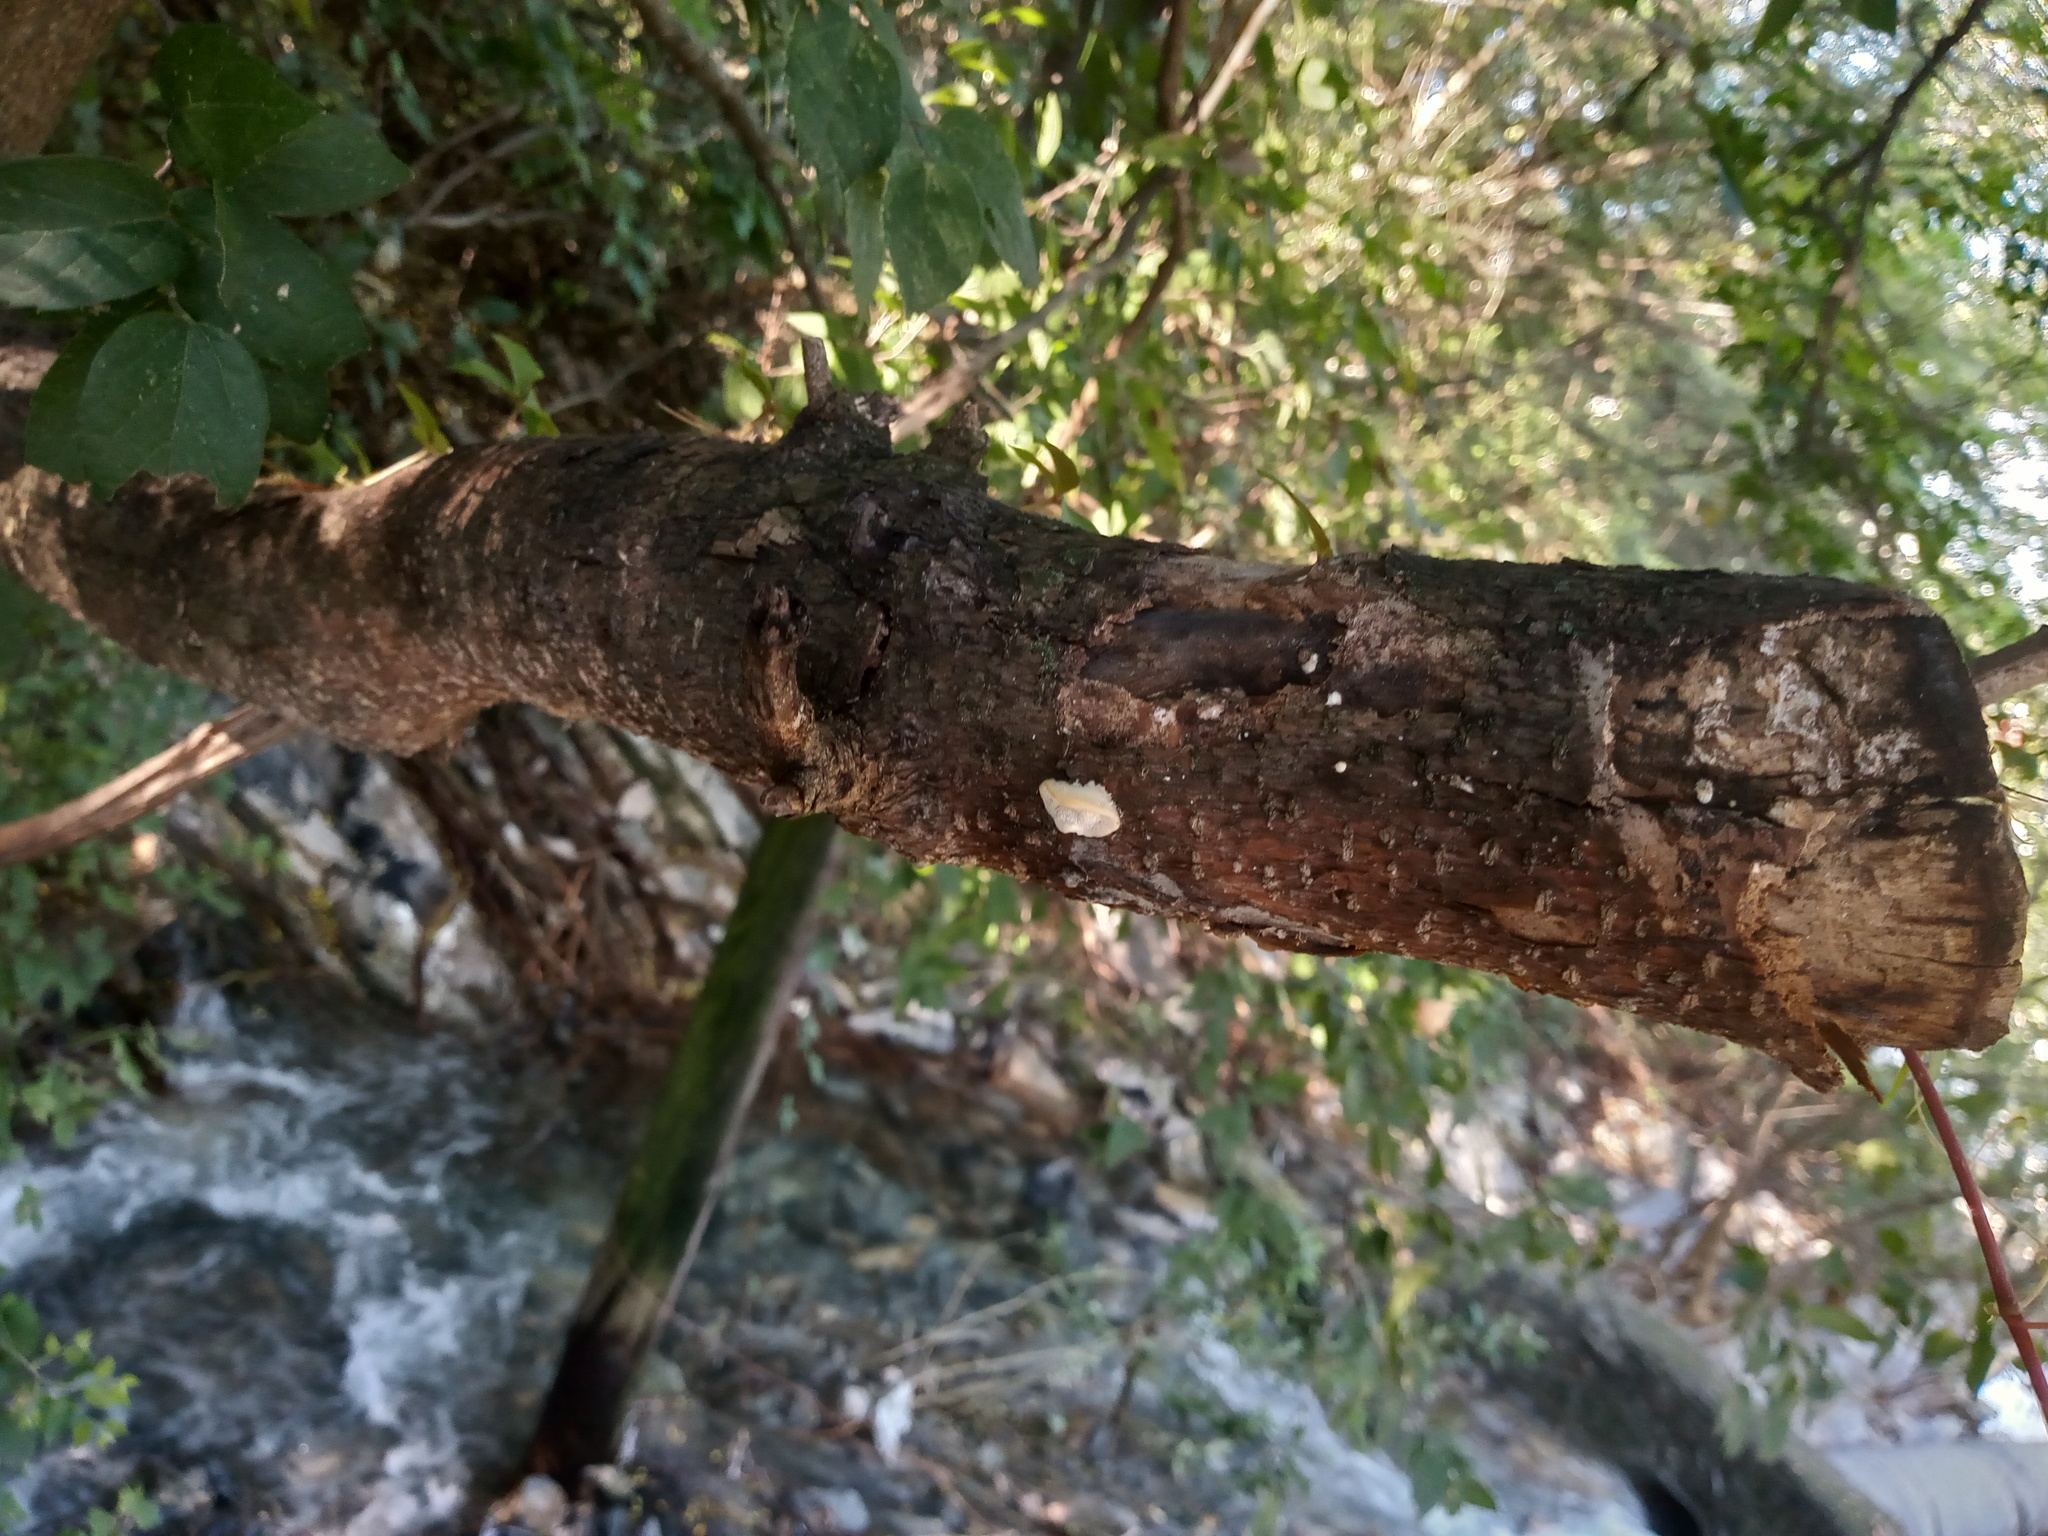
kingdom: Fungi
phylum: Basidiomycota
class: Agaricomycetes
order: Polyporales
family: Fomitopsidaceae
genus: Antrodia
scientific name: Antrodia heteromorpha
